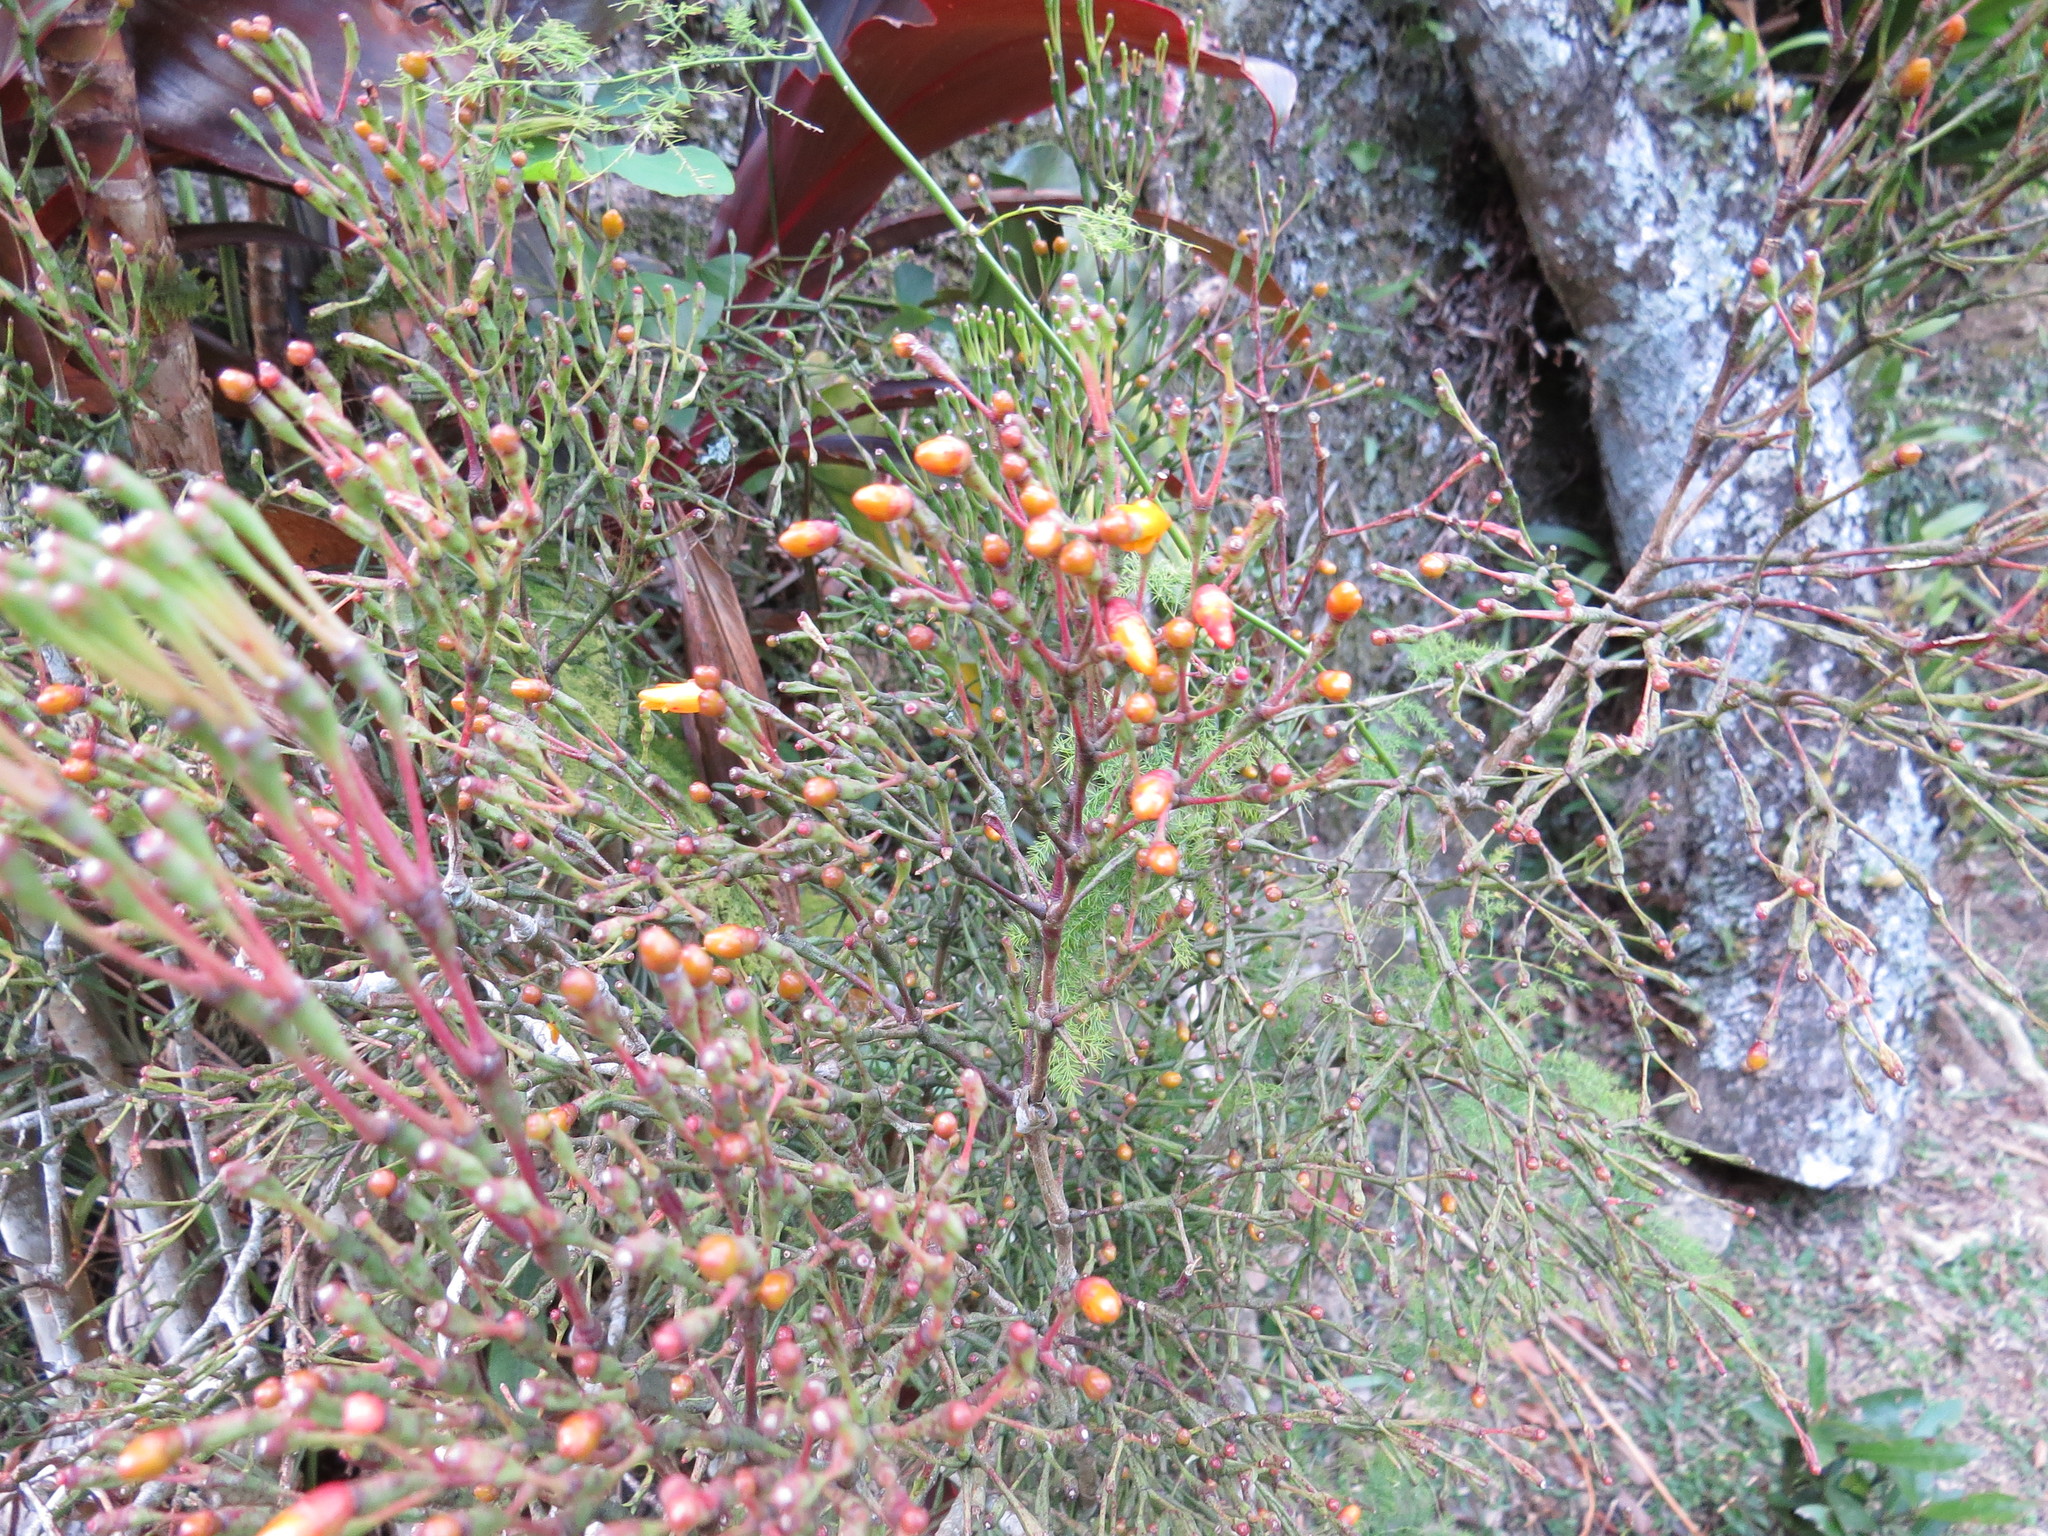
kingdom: Plantae
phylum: Tracheophyta
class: Magnoliopsida
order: Caryophyllales
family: Cactaceae
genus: Hatiora
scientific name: Hatiora salicornoides
